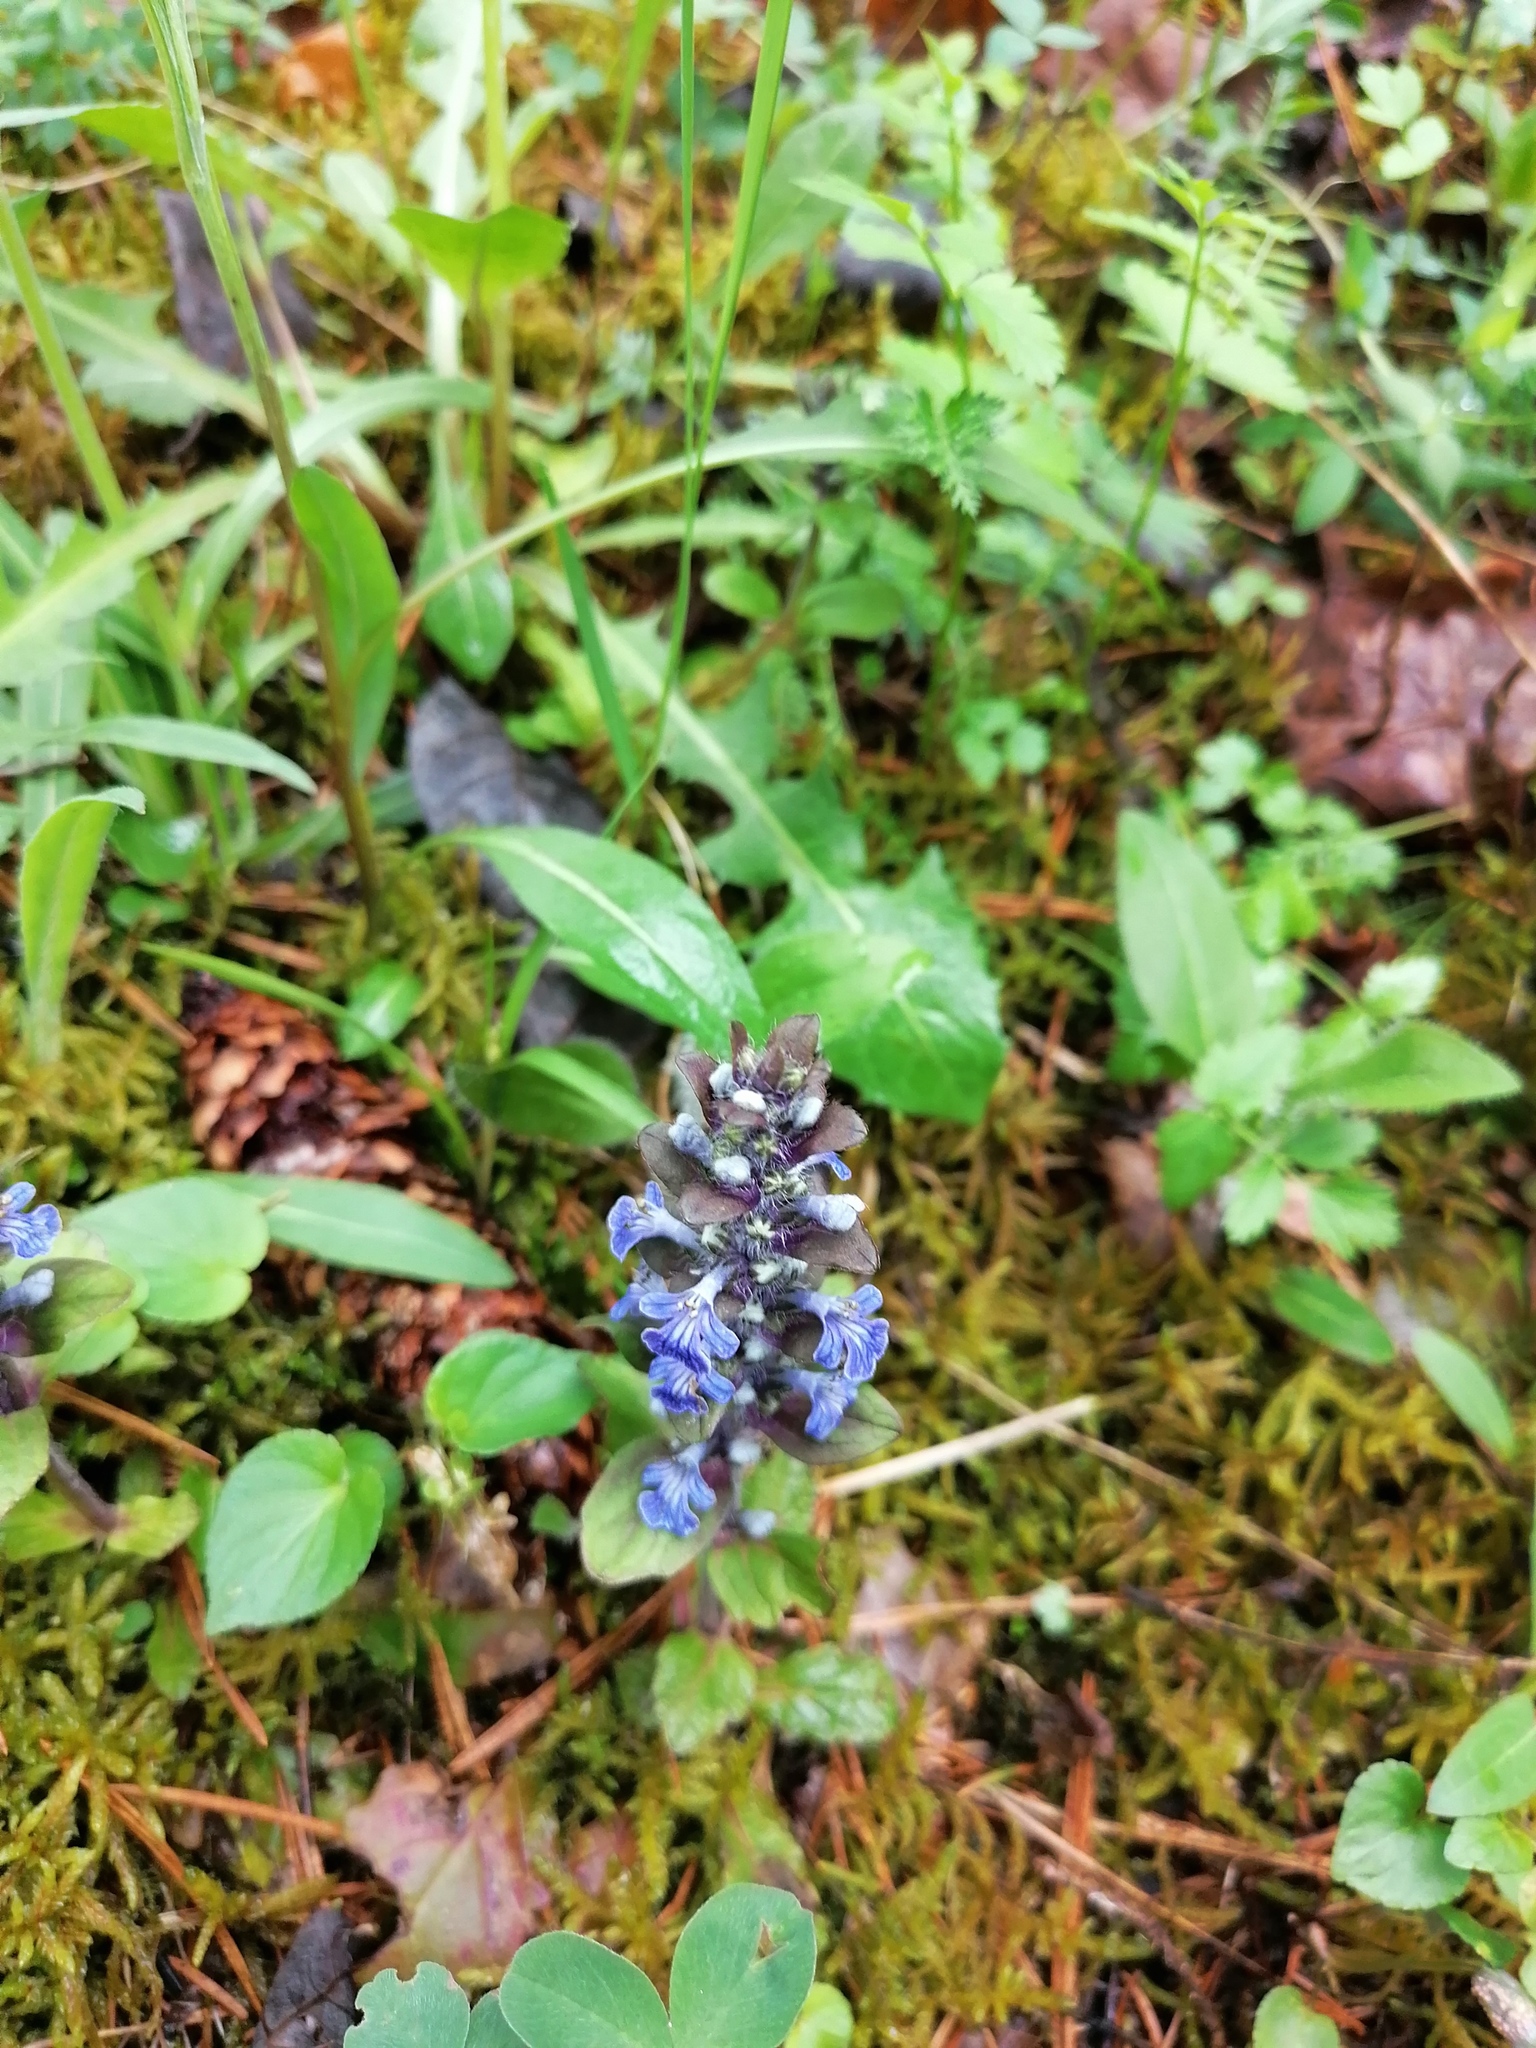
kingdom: Plantae
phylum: Tracheophyta
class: Magnoliopsida
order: Lamiales
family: Lamiaceae
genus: Ajuga
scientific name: Ajuga reptans
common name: Bugle
